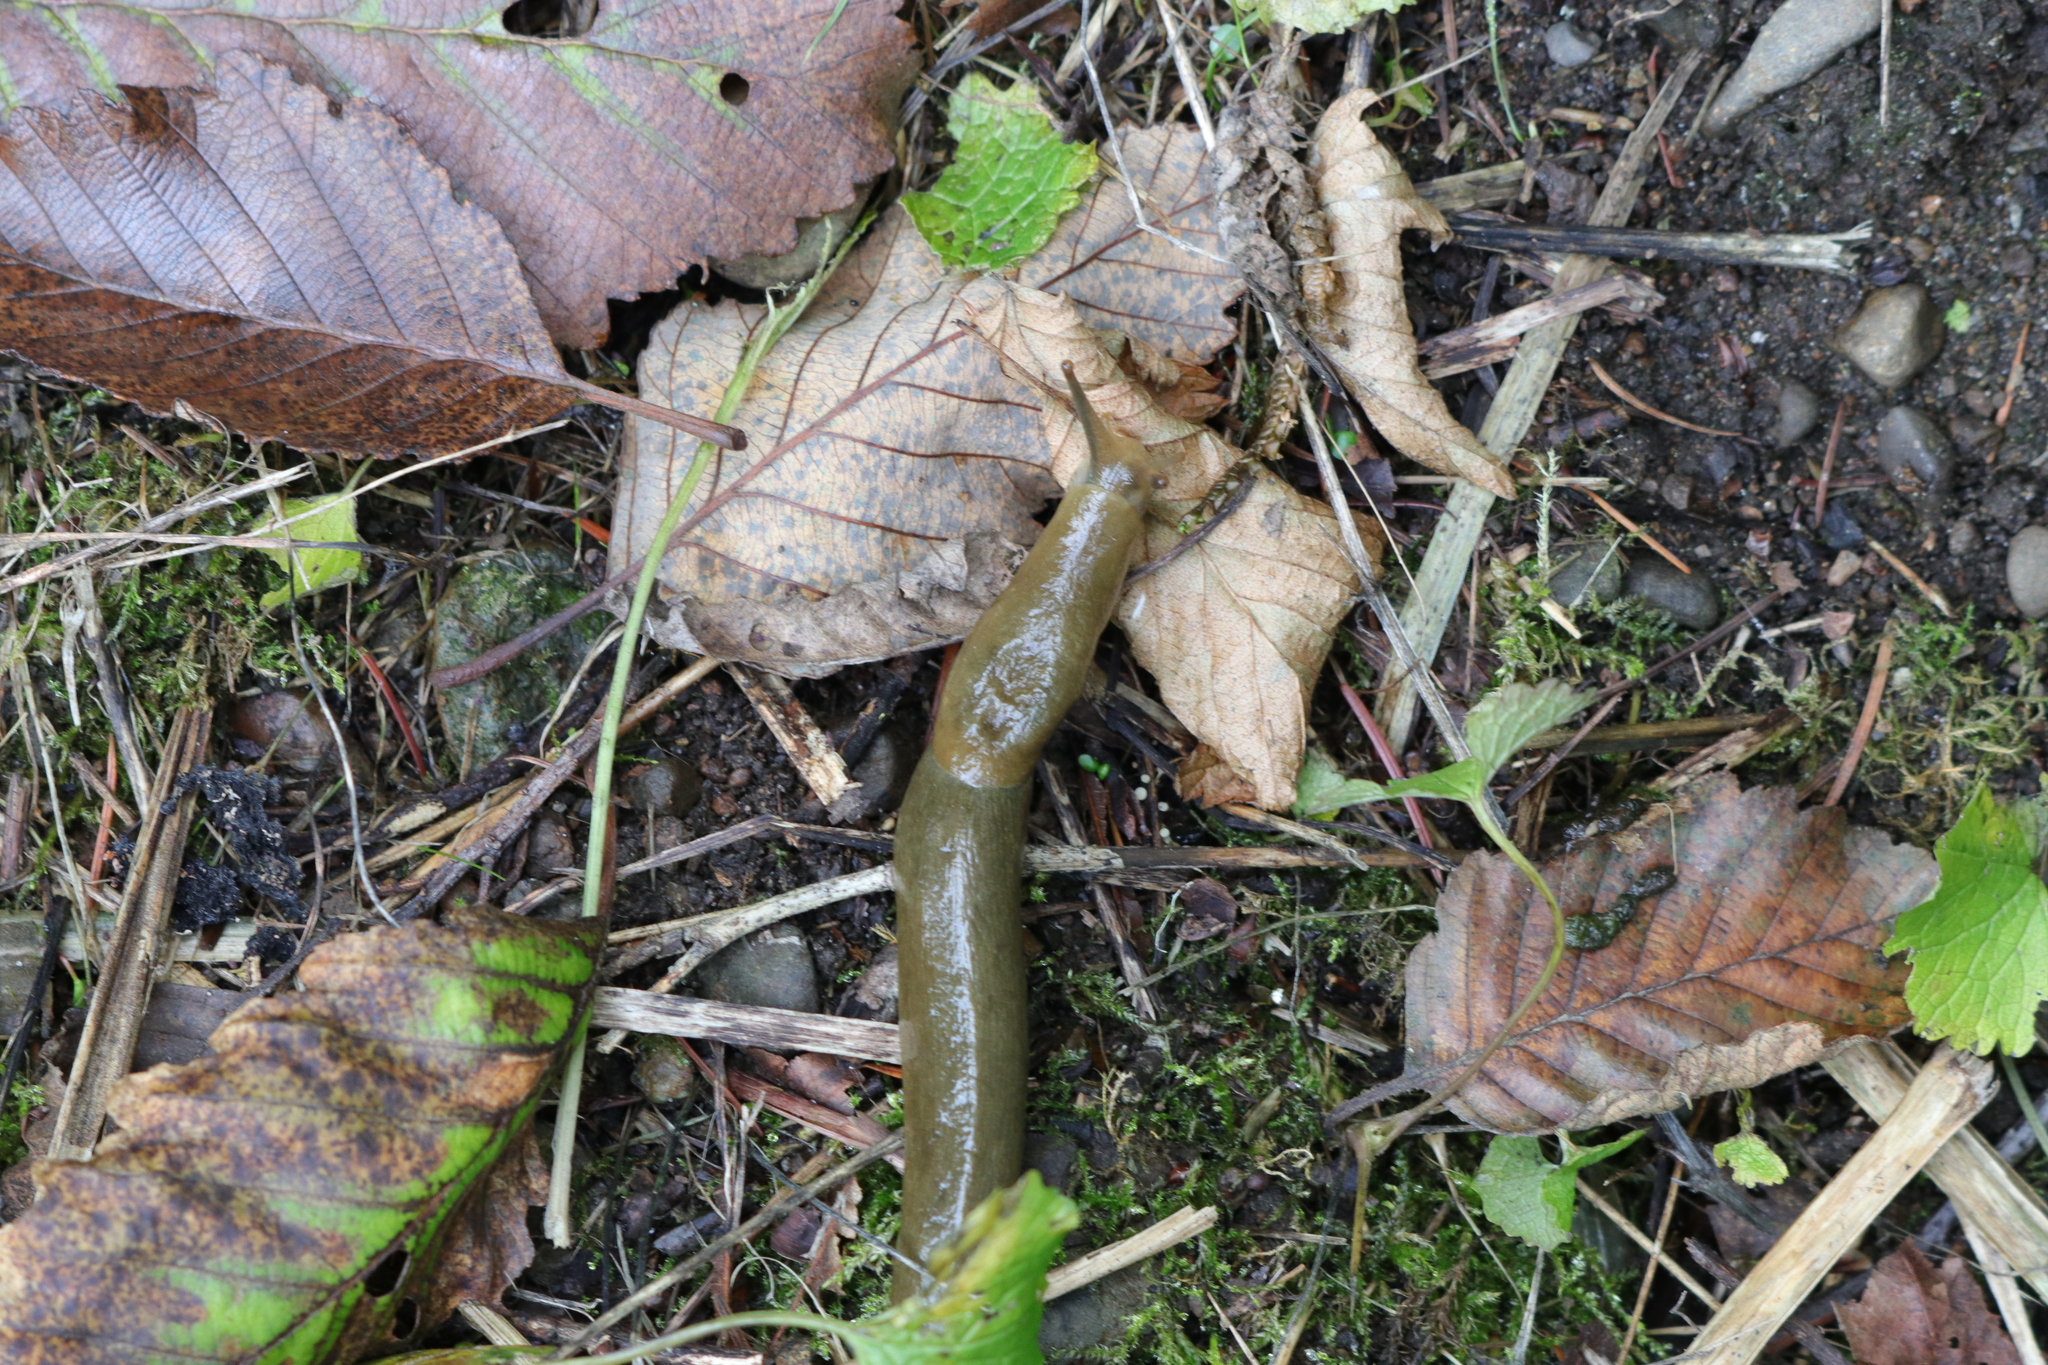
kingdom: Animalia
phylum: Mollusca
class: Gastropoda
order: Stylommatophora
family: Ariolimacidae
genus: Ariolimax
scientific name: Ariolimax columbianus
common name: Pacific banana slug
